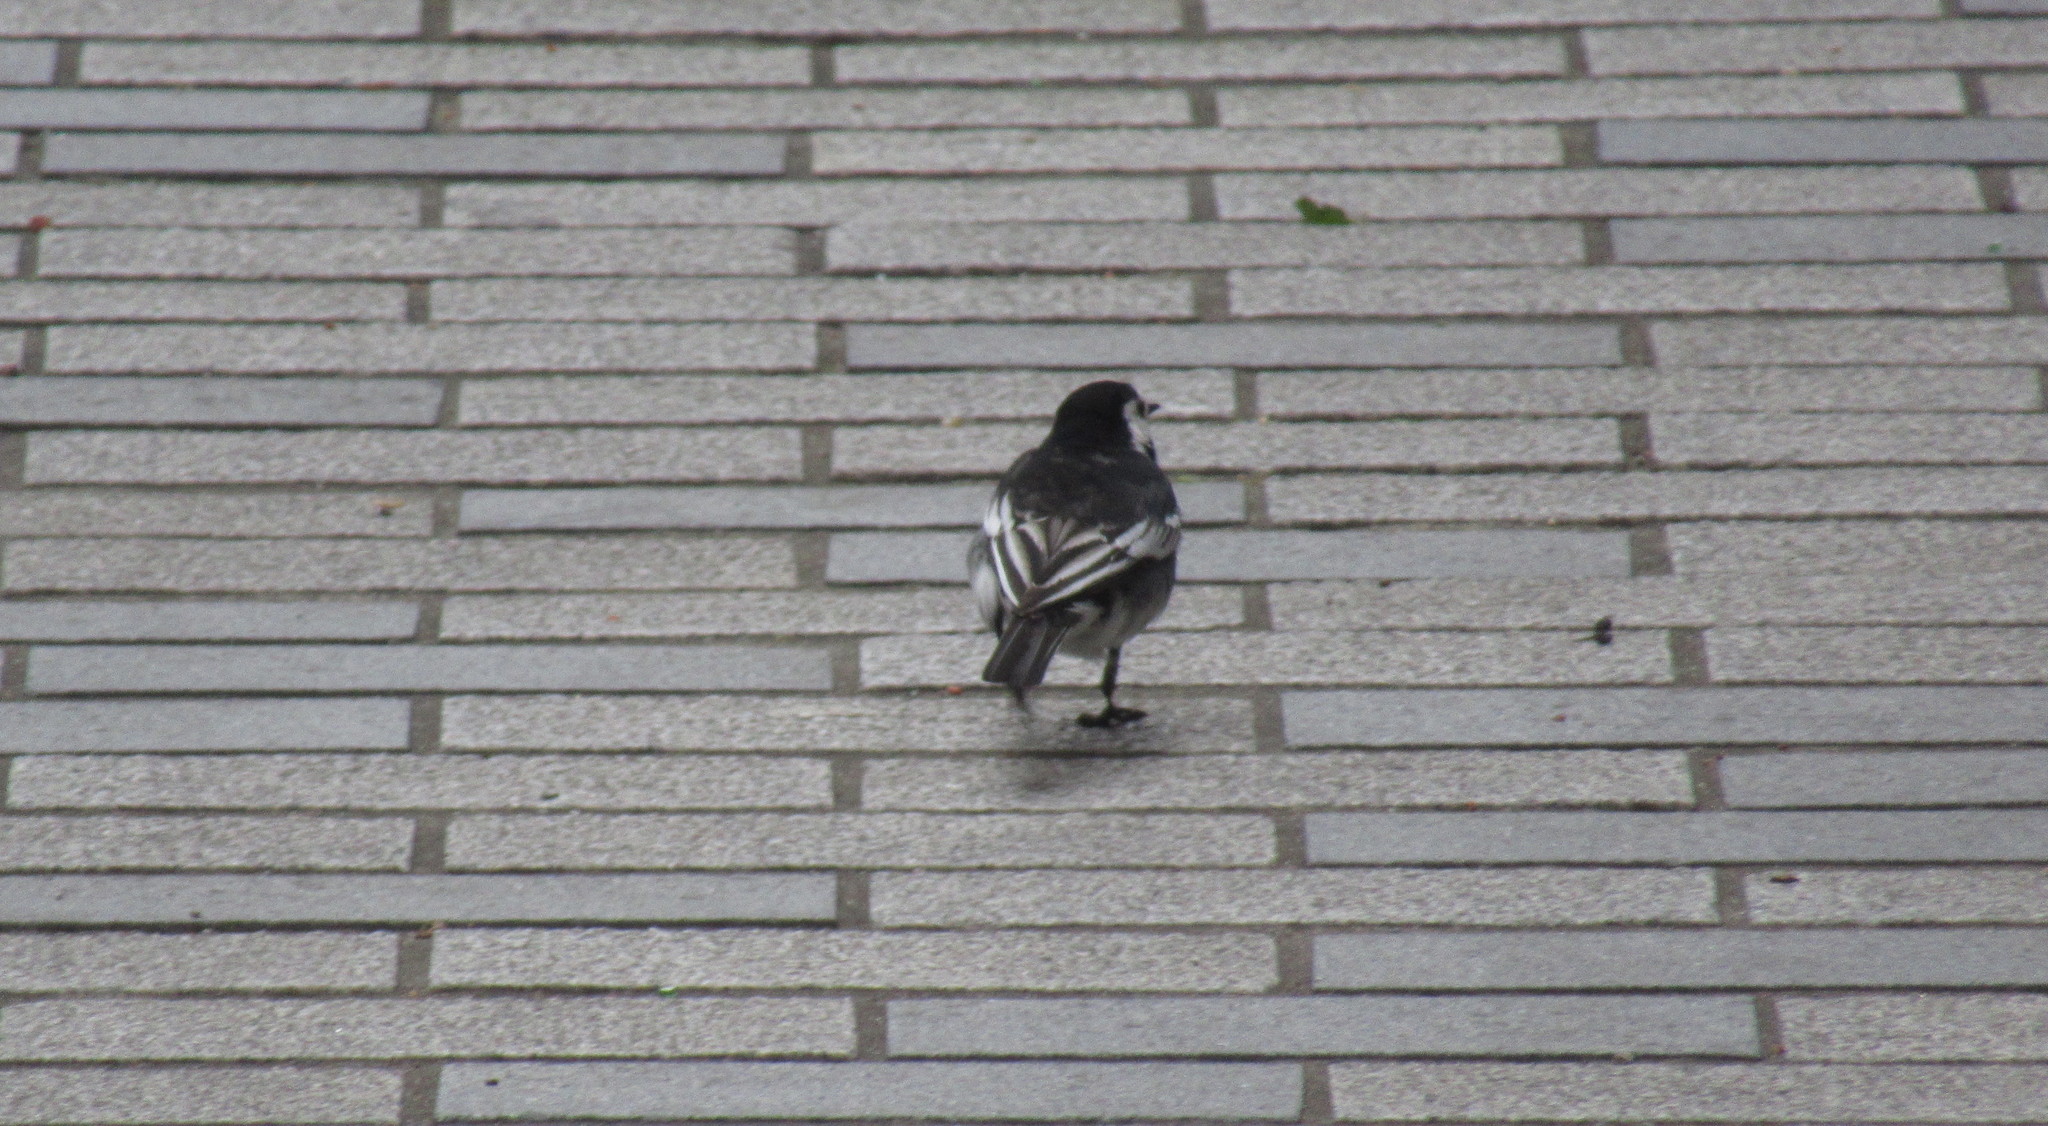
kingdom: Animalia
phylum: Chordata
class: Aves
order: Passeriformes
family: Motacillidae
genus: Motacilla
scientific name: Motacilla alba
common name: White wagtail
